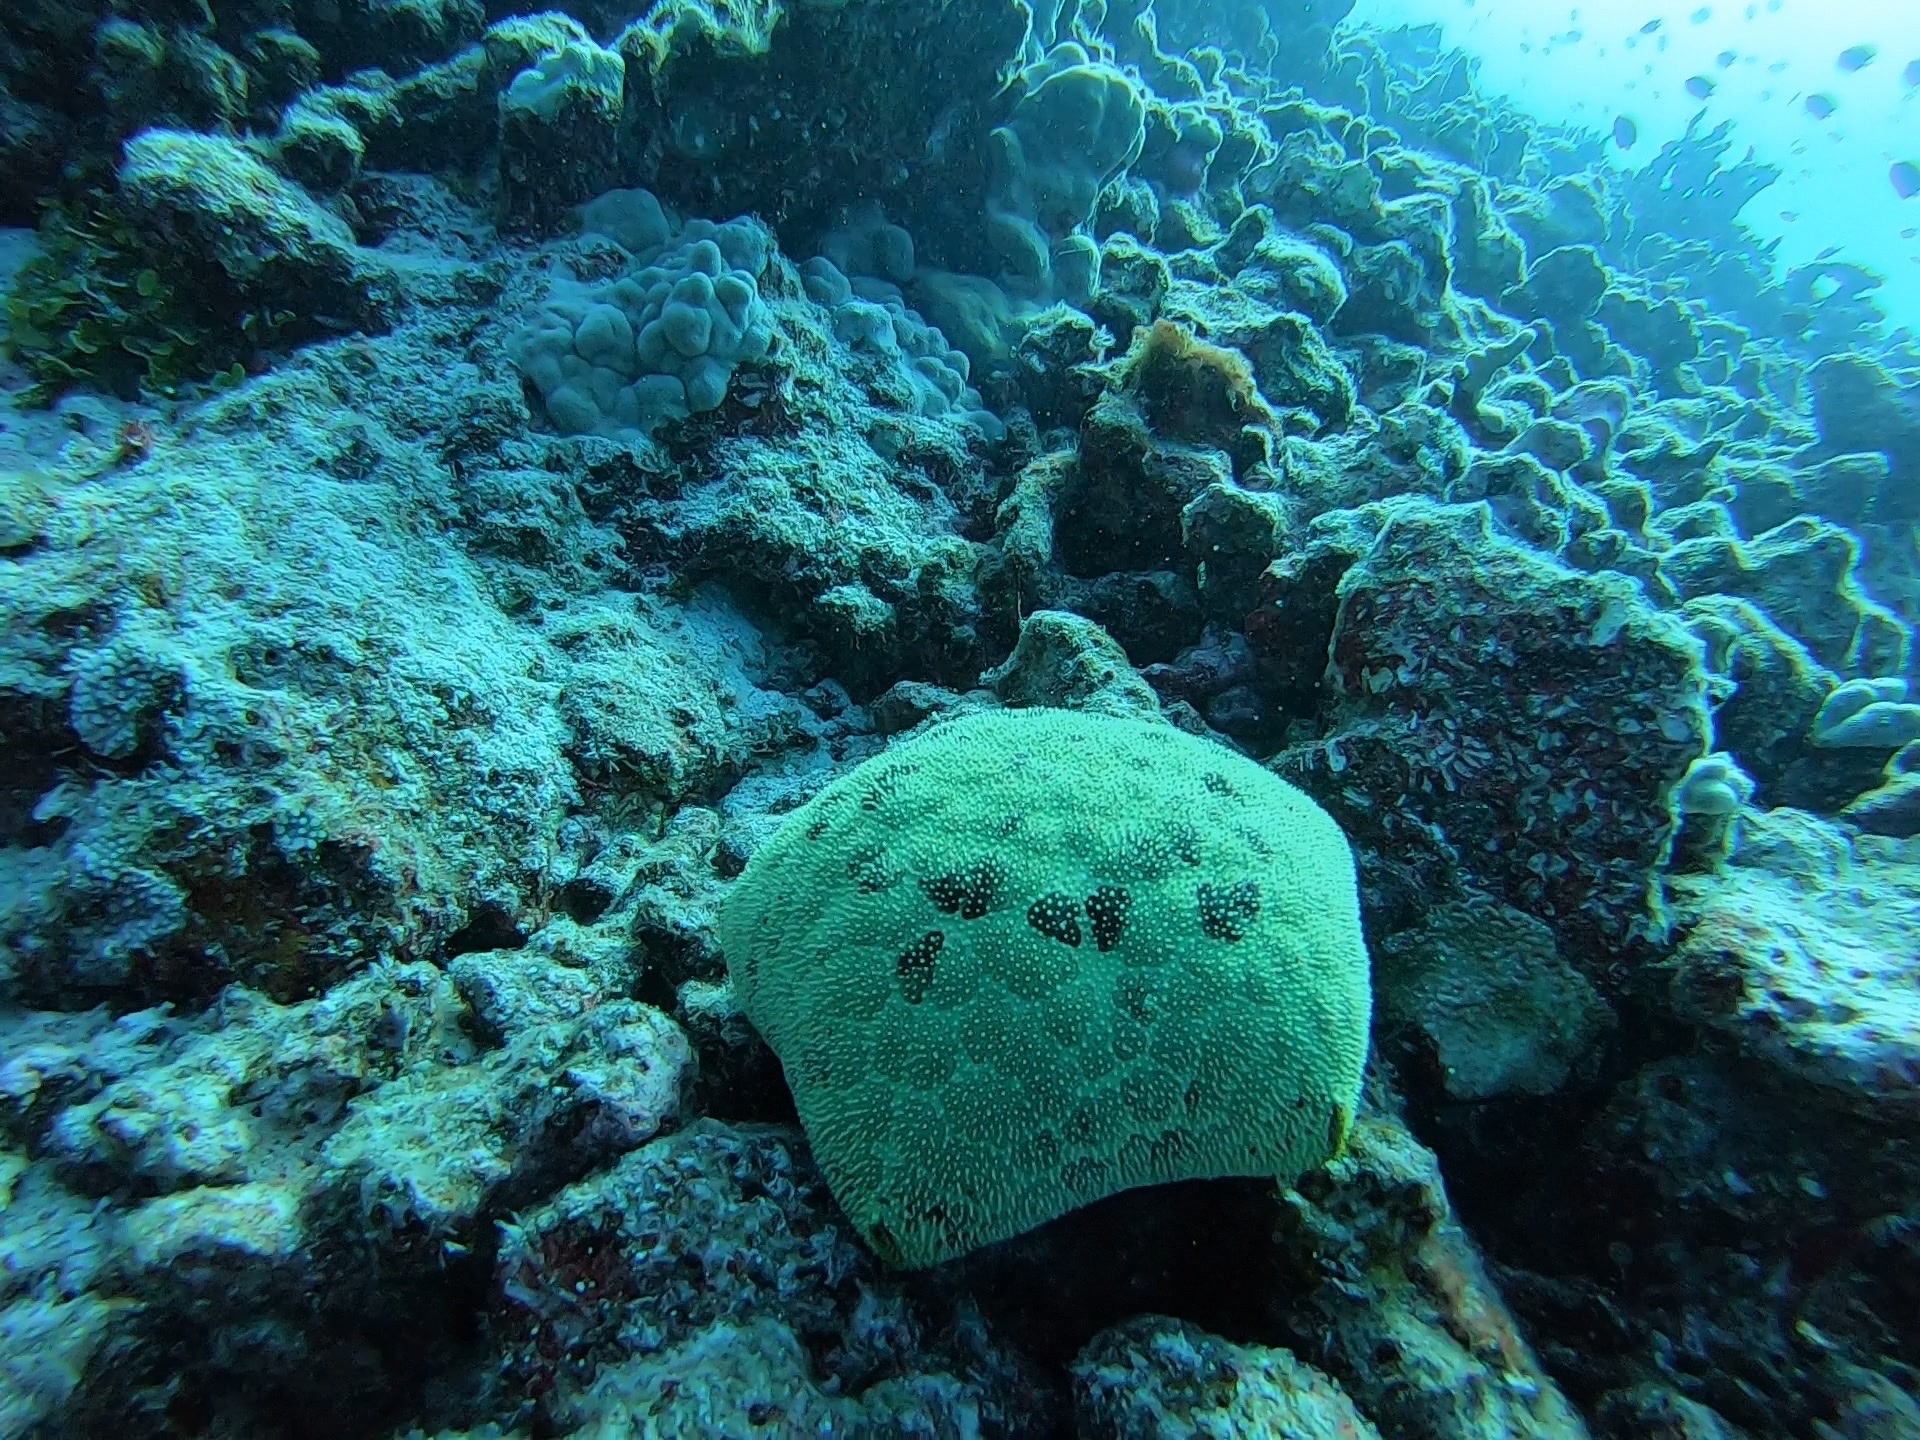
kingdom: Animalia
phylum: Echinodermata
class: Asteroidea
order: Valvatida
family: Oreasteridae
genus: Culcita
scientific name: Culcita novaeguineae
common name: Cushion star
